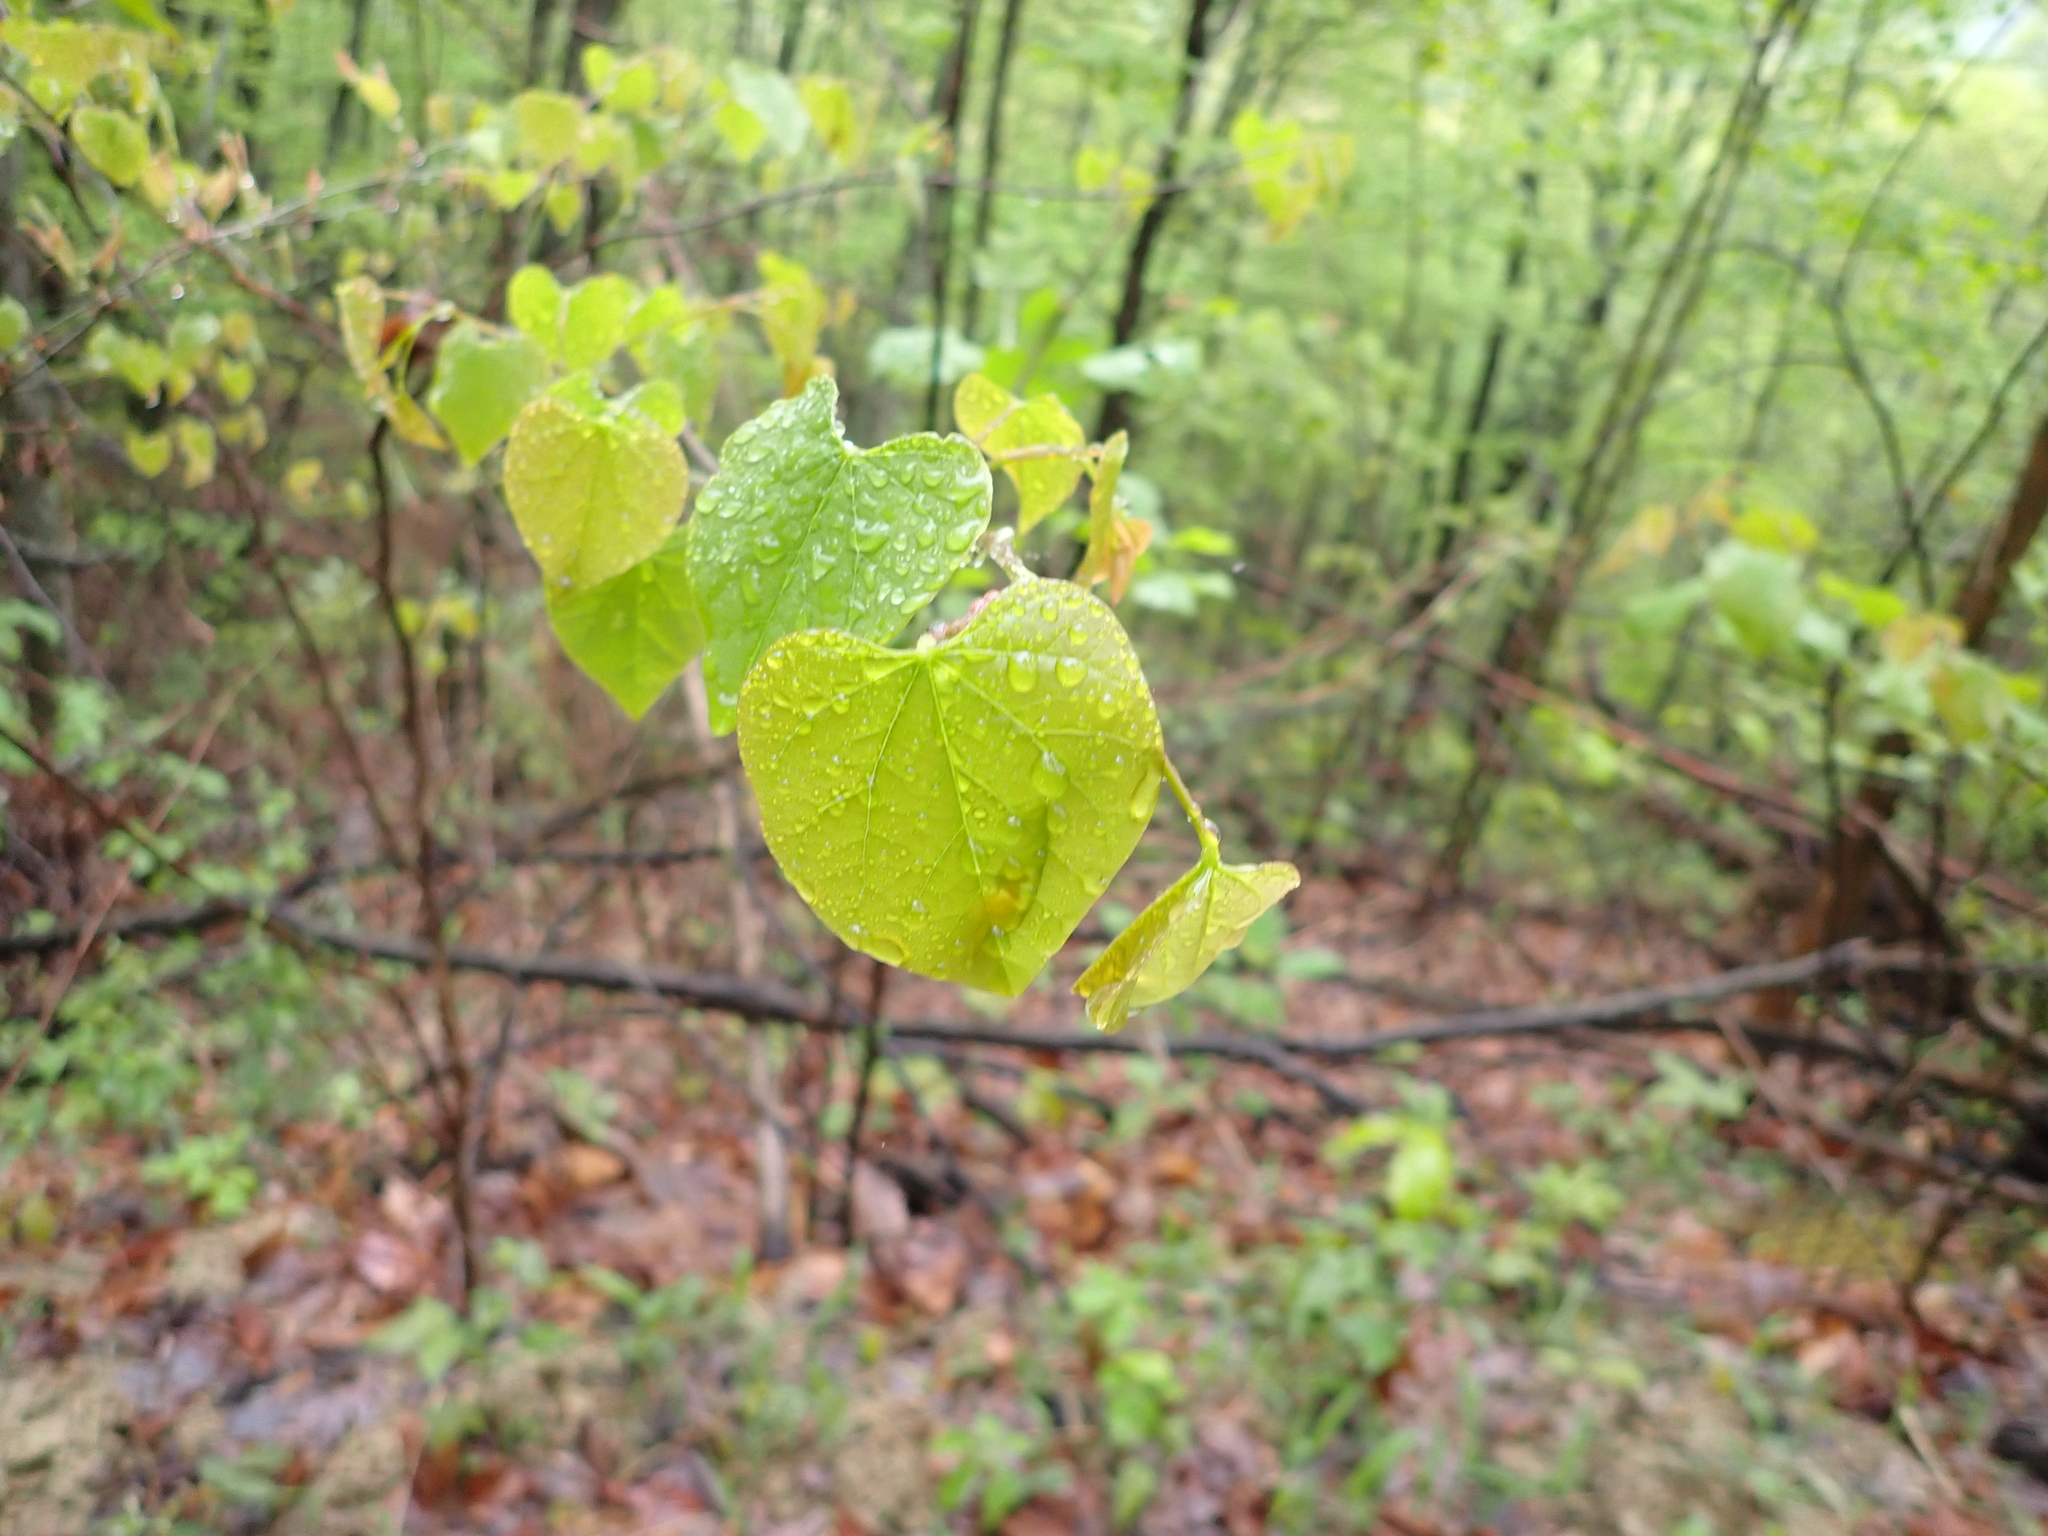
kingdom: Plantae
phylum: Tracheophyta
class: Magnoliopsida
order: Fabales
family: Fabaceae
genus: Cercis
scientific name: Cercis canadensis
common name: Eastern redbud
